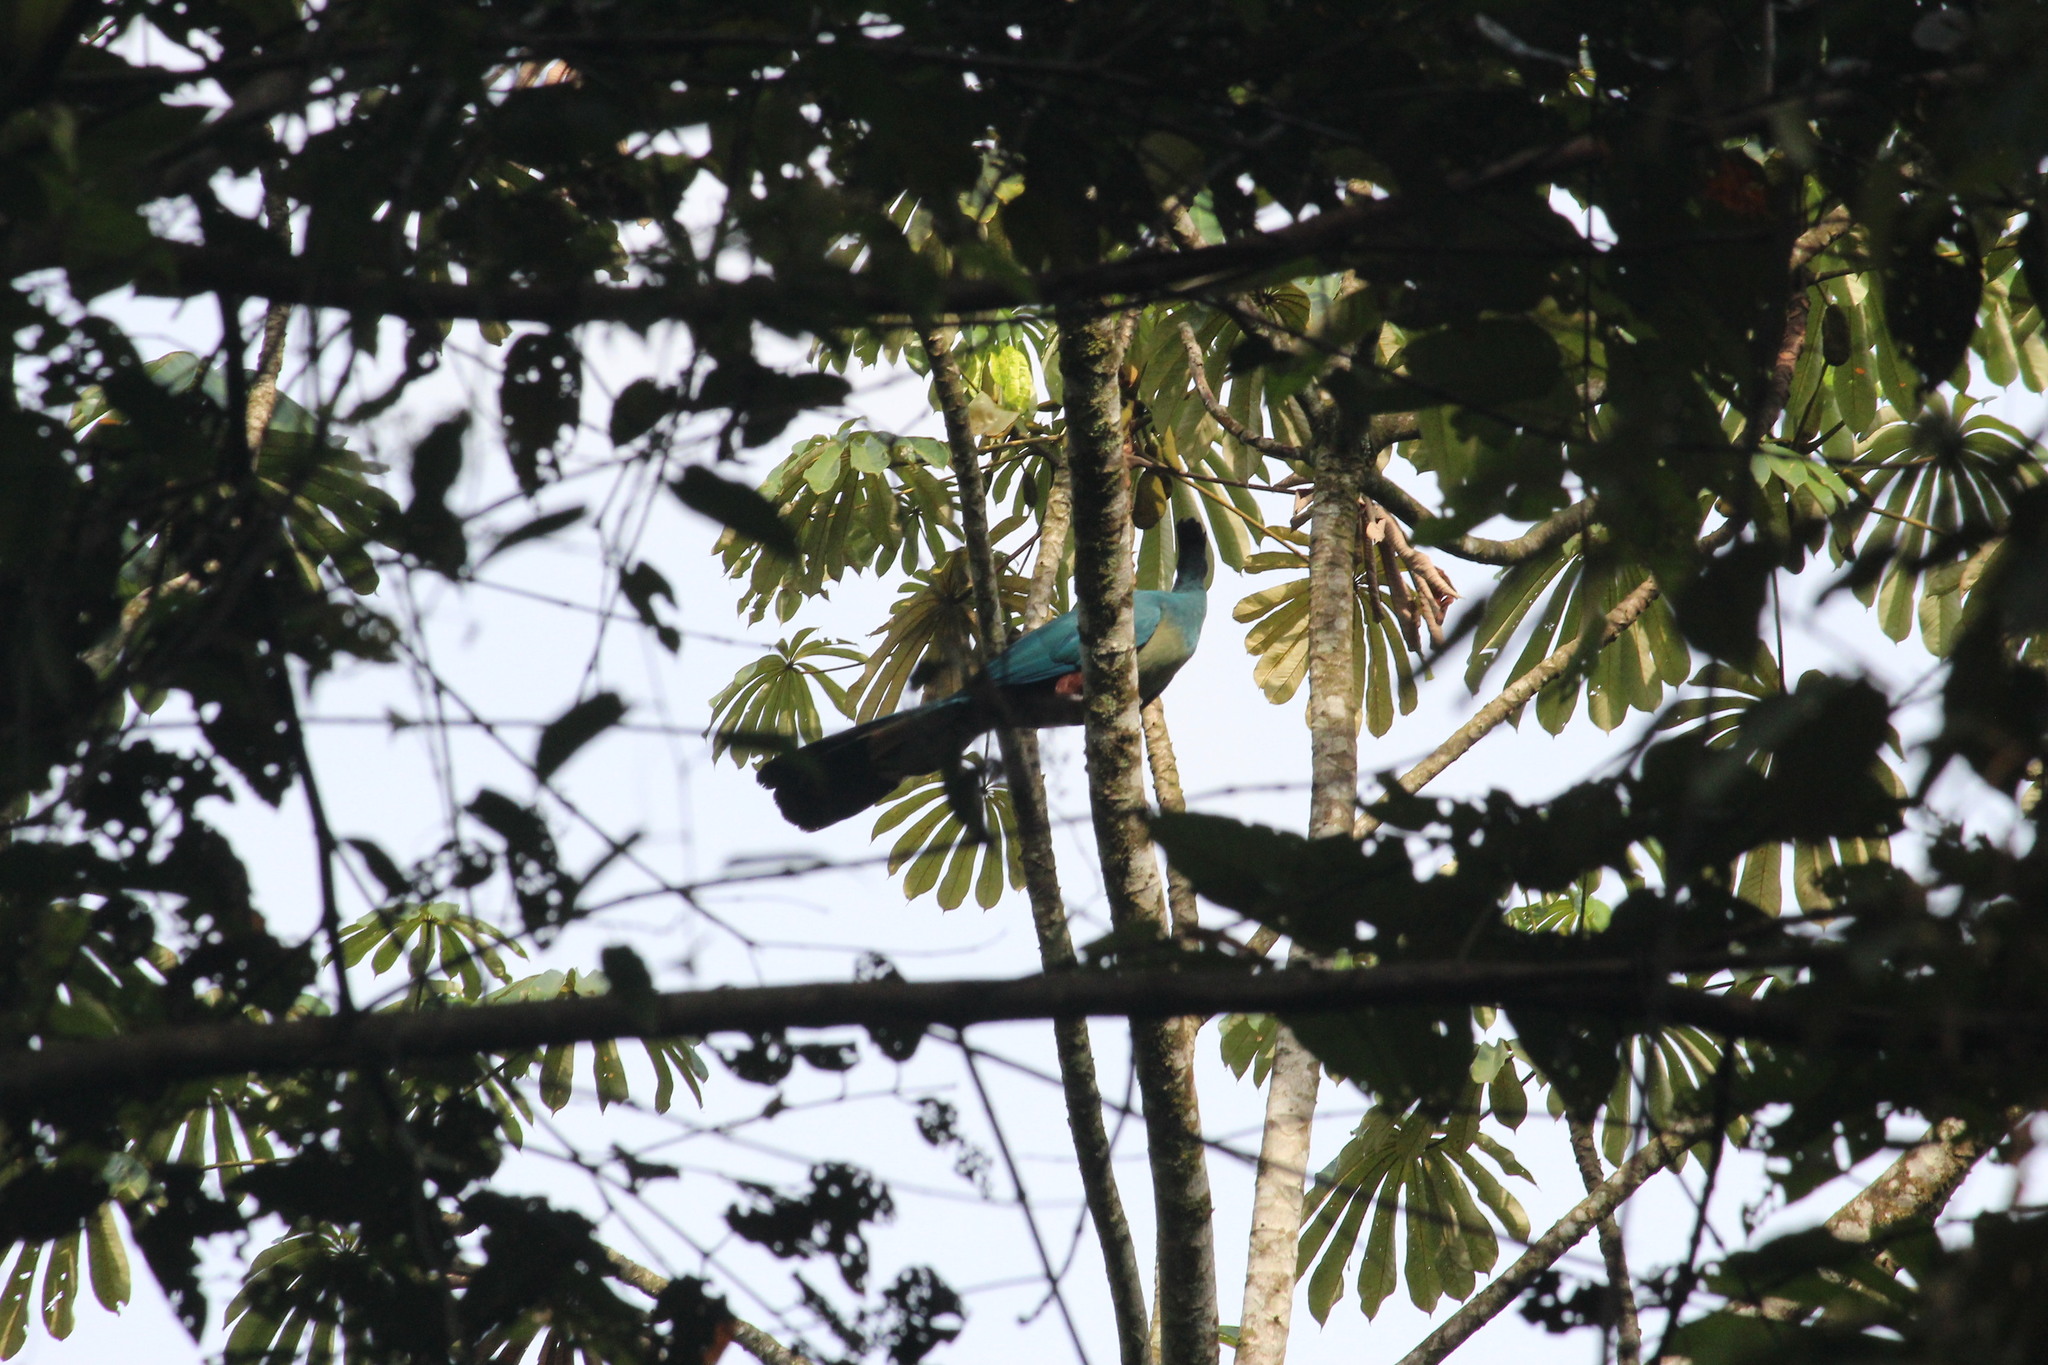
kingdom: Animalia
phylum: Chordata
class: Aves
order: Musophagiformes
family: Musophagidae
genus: Corythaeola
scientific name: Corythaeola cristata
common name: Great blue turaco
